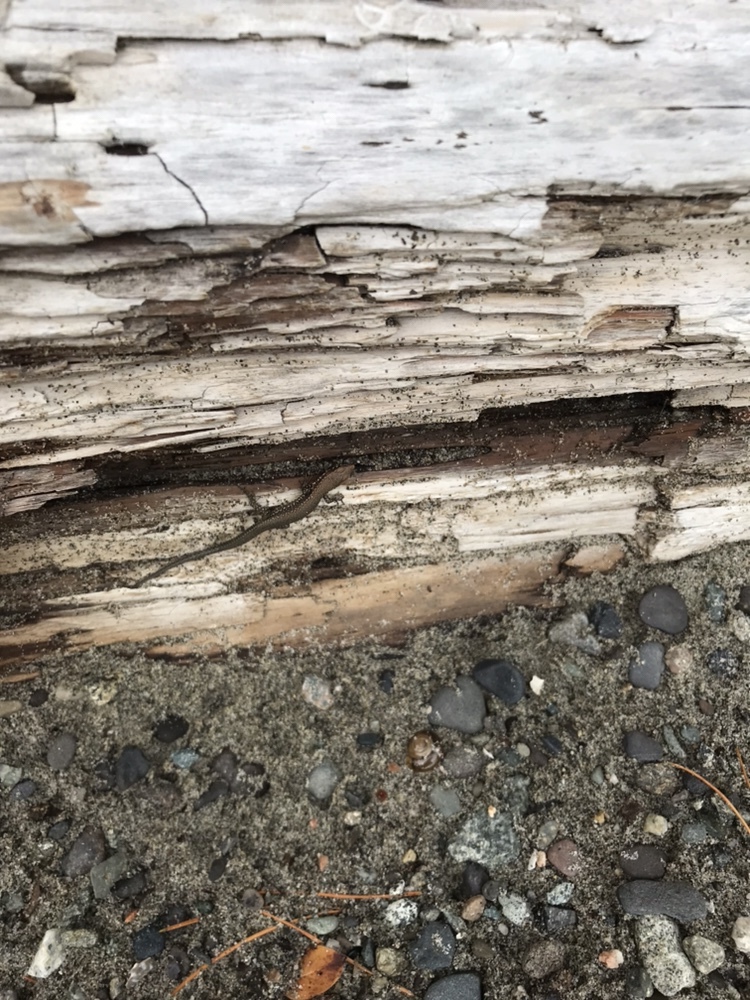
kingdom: Animalia
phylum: Chordata
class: Squamata
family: Lacertidae
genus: Podarcis
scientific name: Podarcis muralis
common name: Common wall lizard
